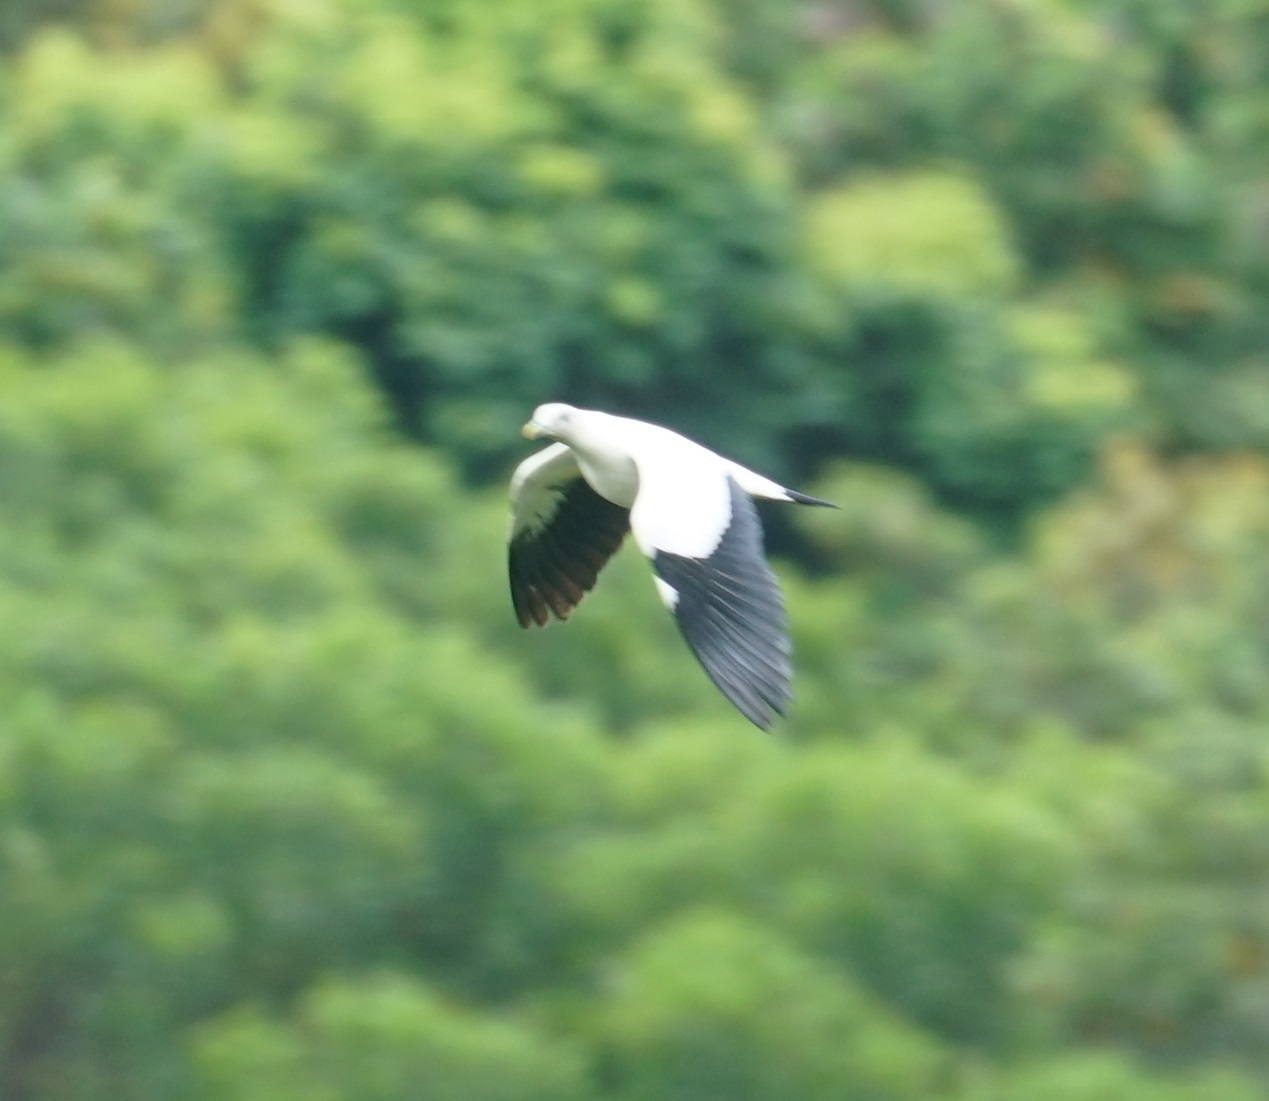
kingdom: Animalia
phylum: Chordata
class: Aves
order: Columbiformes
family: Columbidae
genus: Ducula
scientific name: Ducula spilorrhoa
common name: Torresian imperial pigeon
